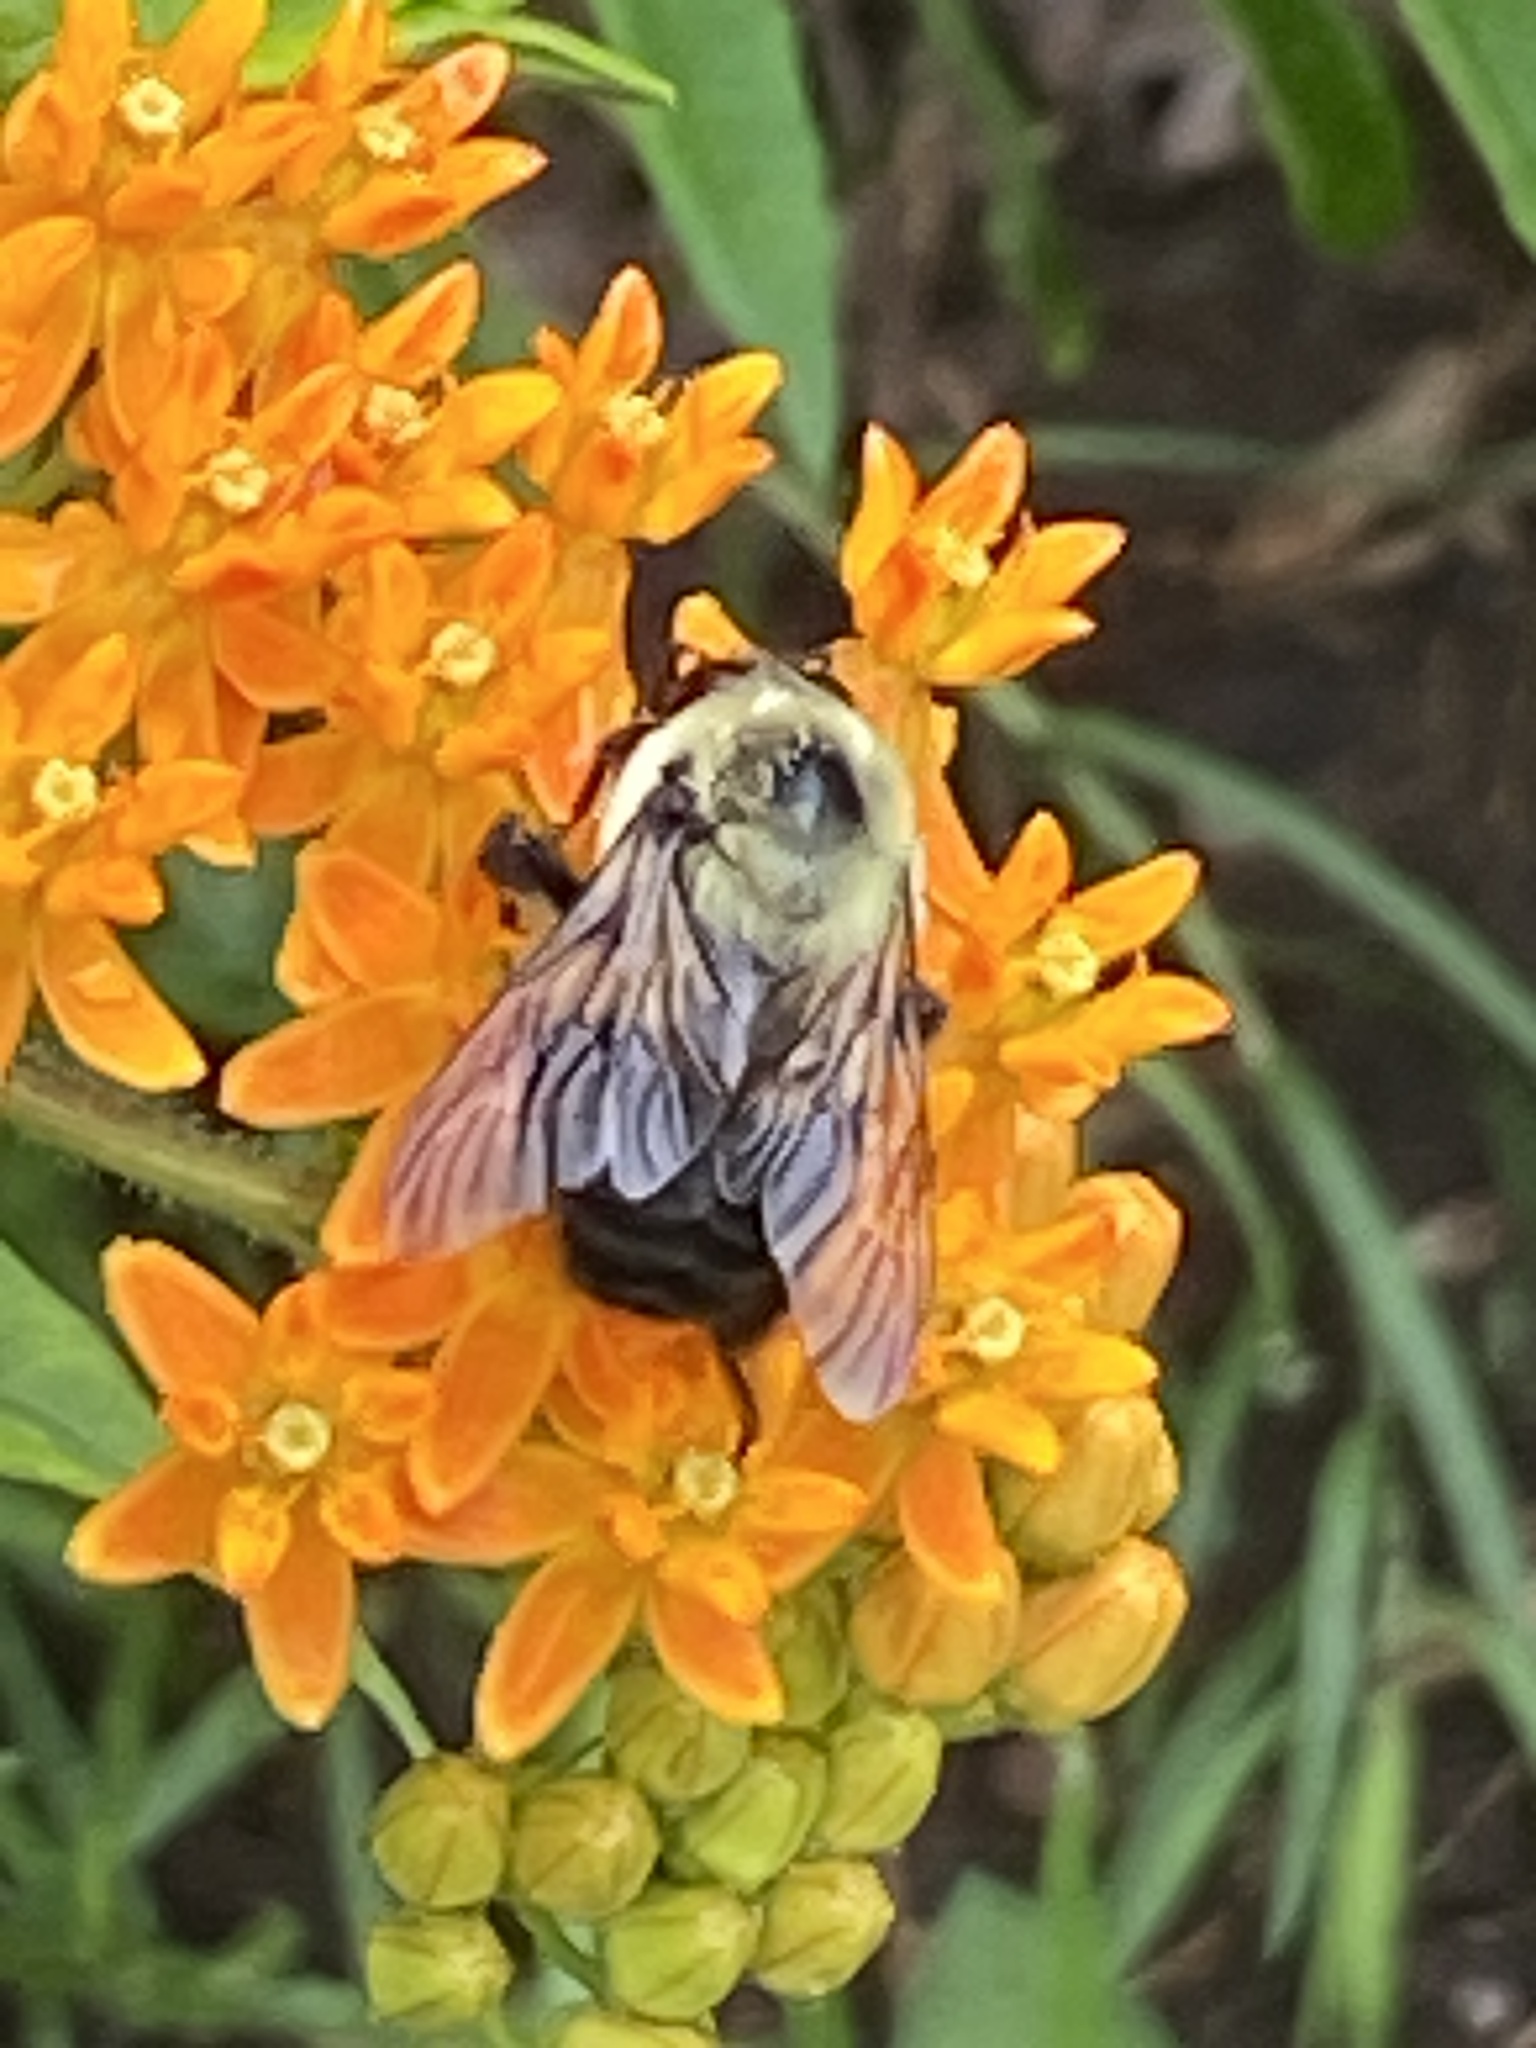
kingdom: Animalia
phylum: Arthropoda
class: Insecta
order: Hymenoptera
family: Apidae
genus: Bombus
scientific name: Bombus griseocollis
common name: Brown-belted bumble bee
